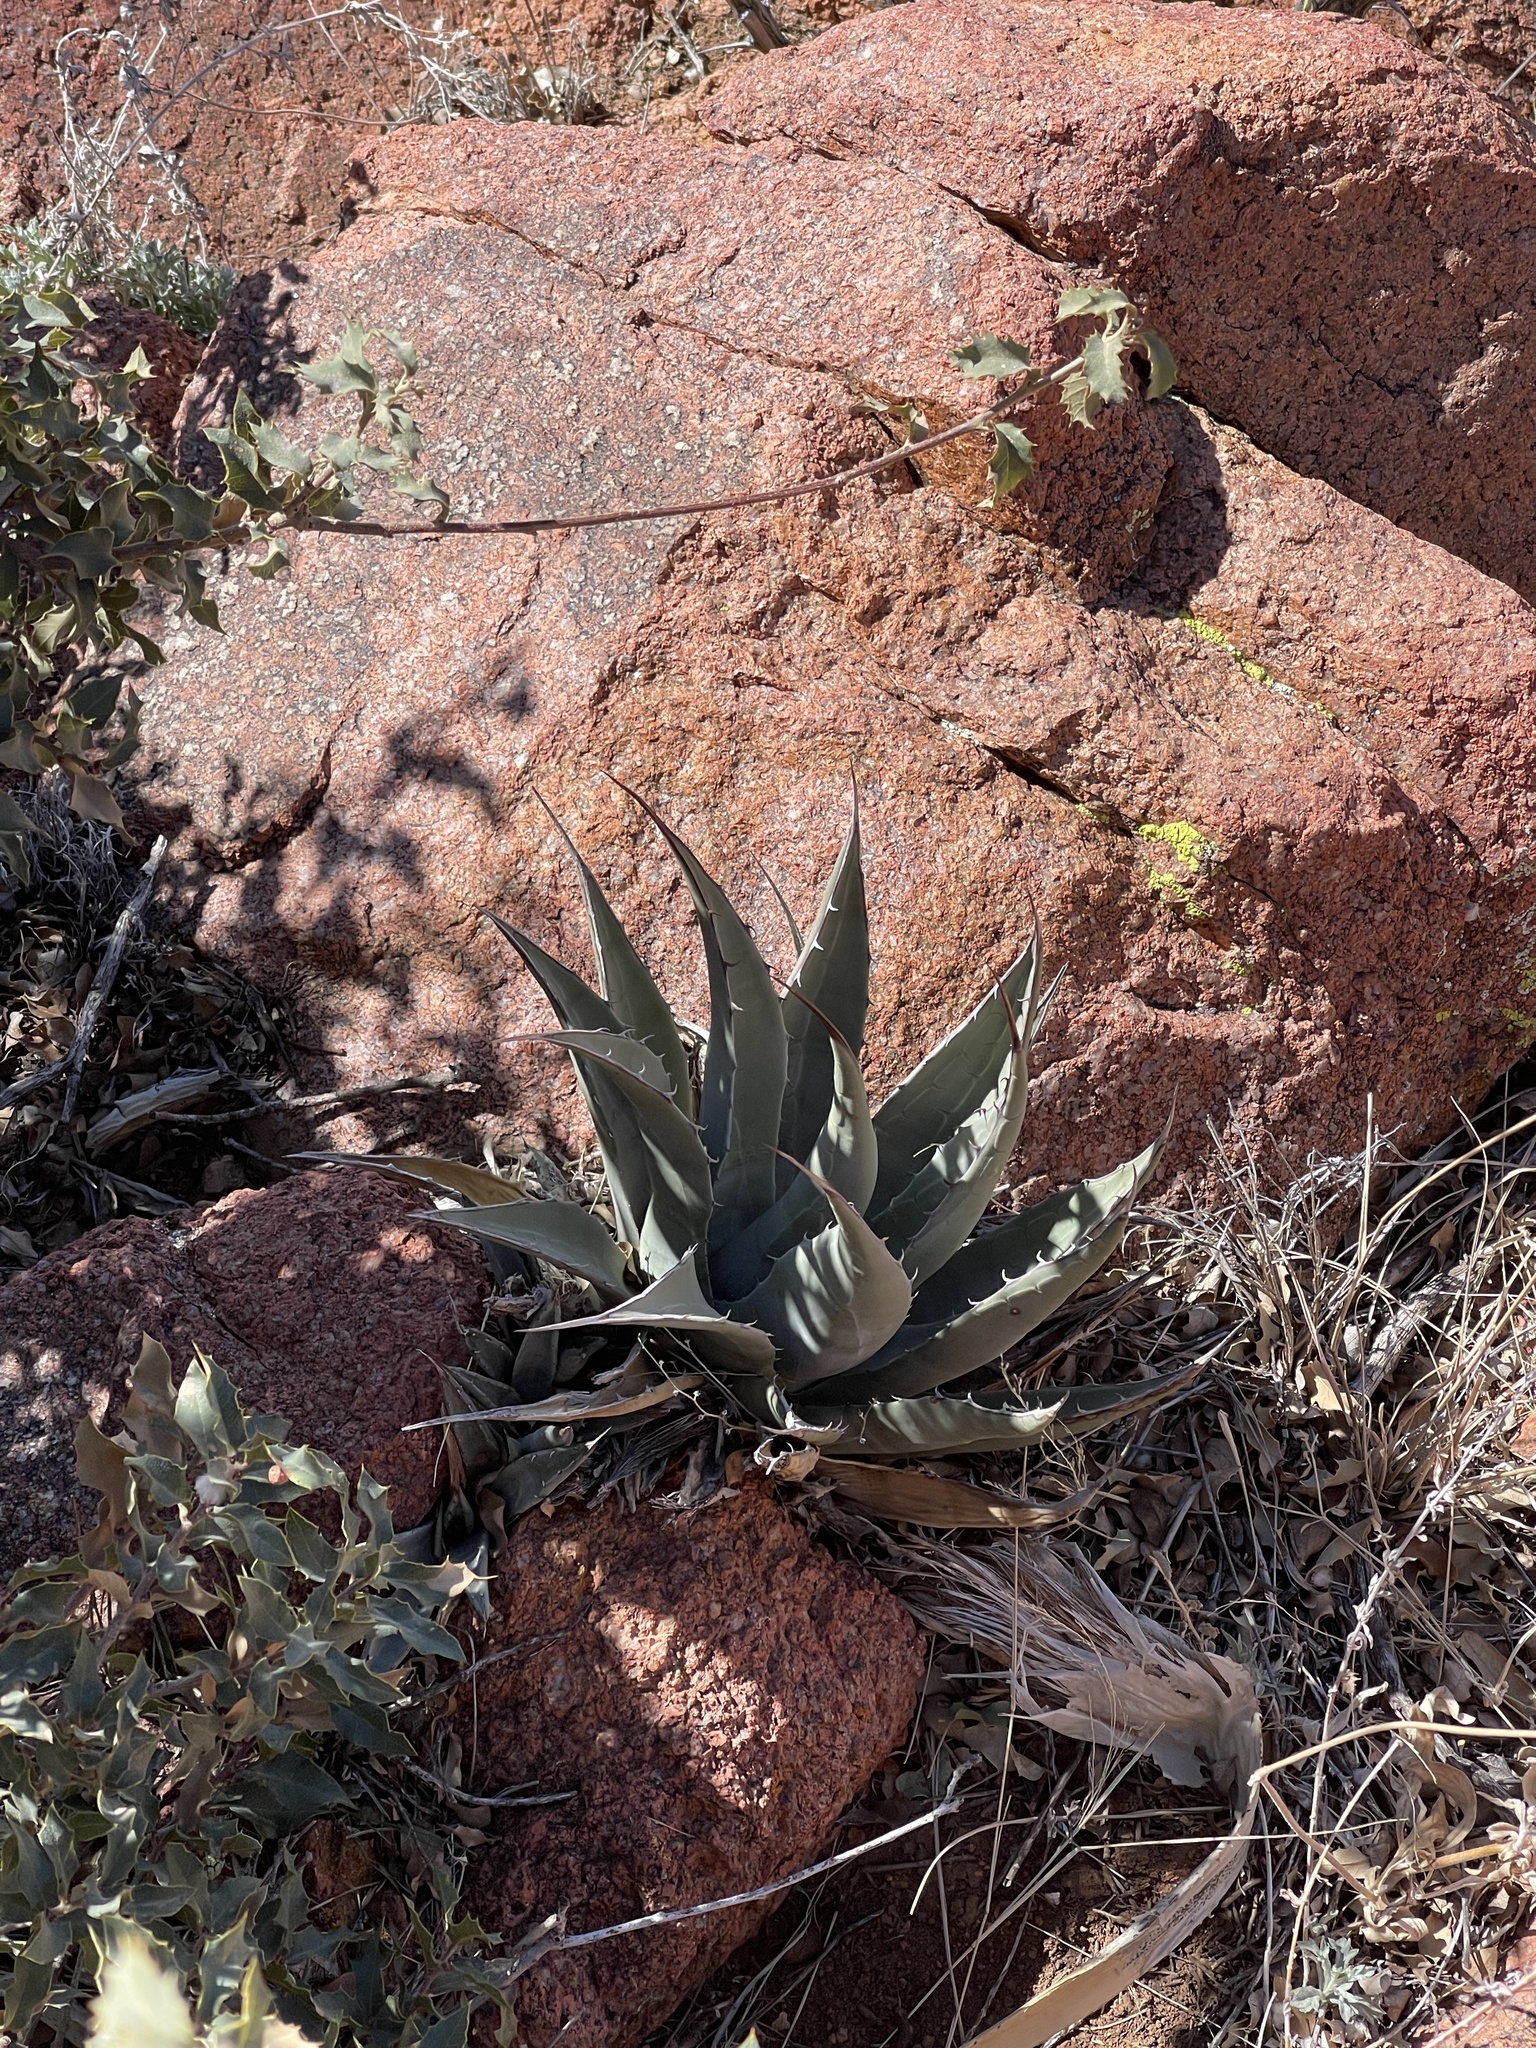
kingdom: Plantae
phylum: Tracheophyta
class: Liliopsida
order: Asparagales
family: Asparagaceae
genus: Agave
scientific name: Agave parryi
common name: Parry's agave
